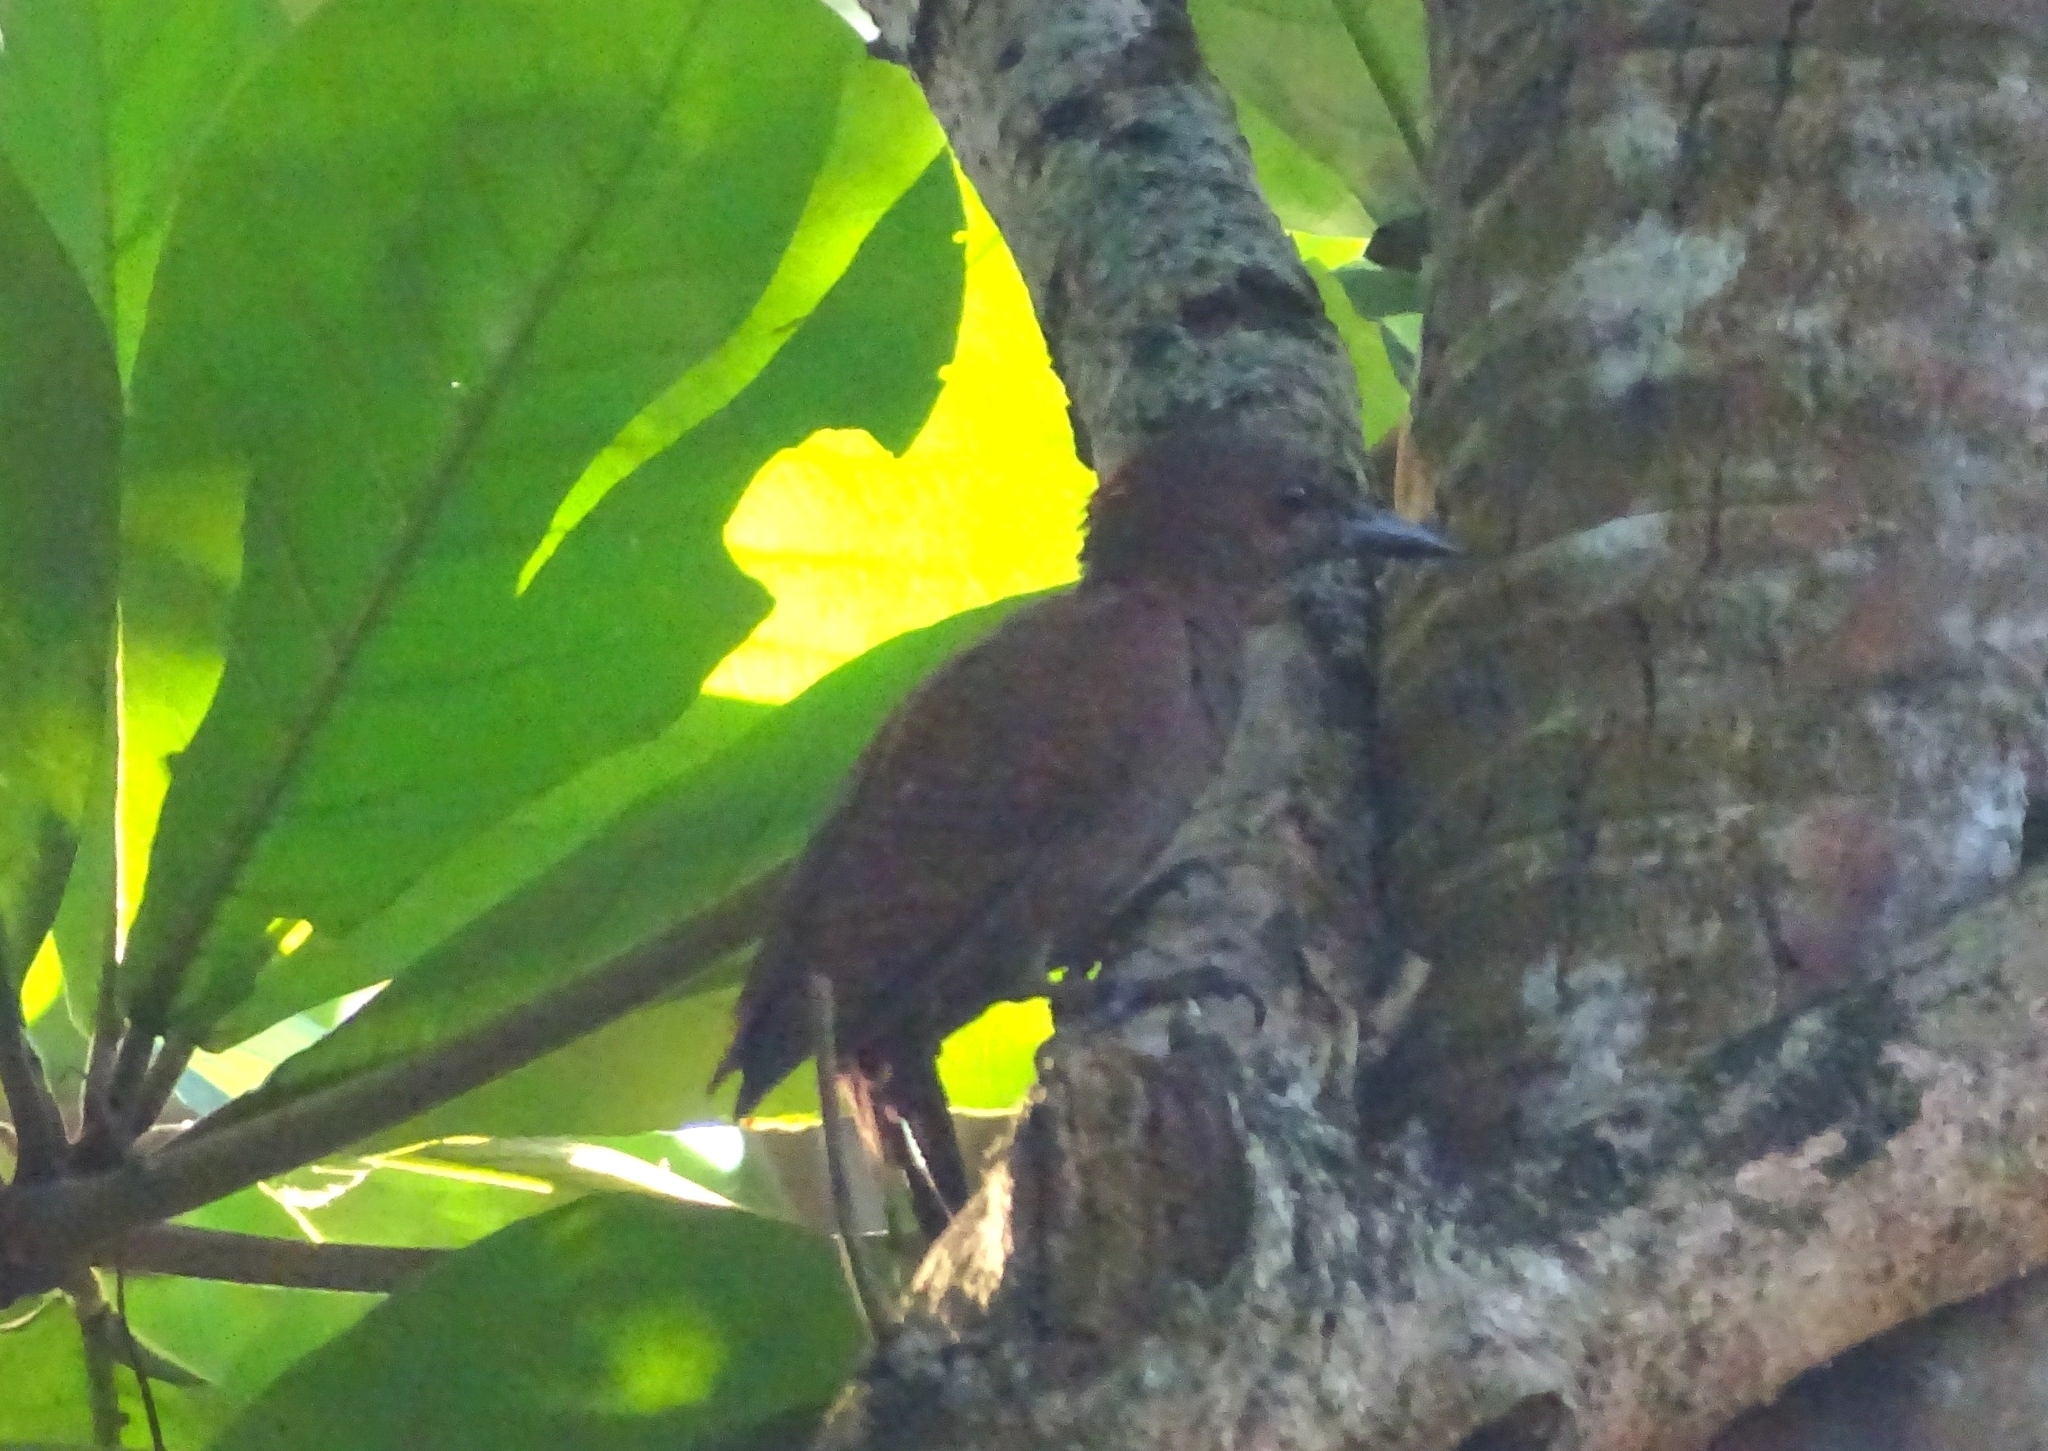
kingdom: Animalia
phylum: Chordata
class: Aves
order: Piciformes
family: Picidae
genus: Micropternus
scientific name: Micropternus brachyurus
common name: Rufous woodpecker
